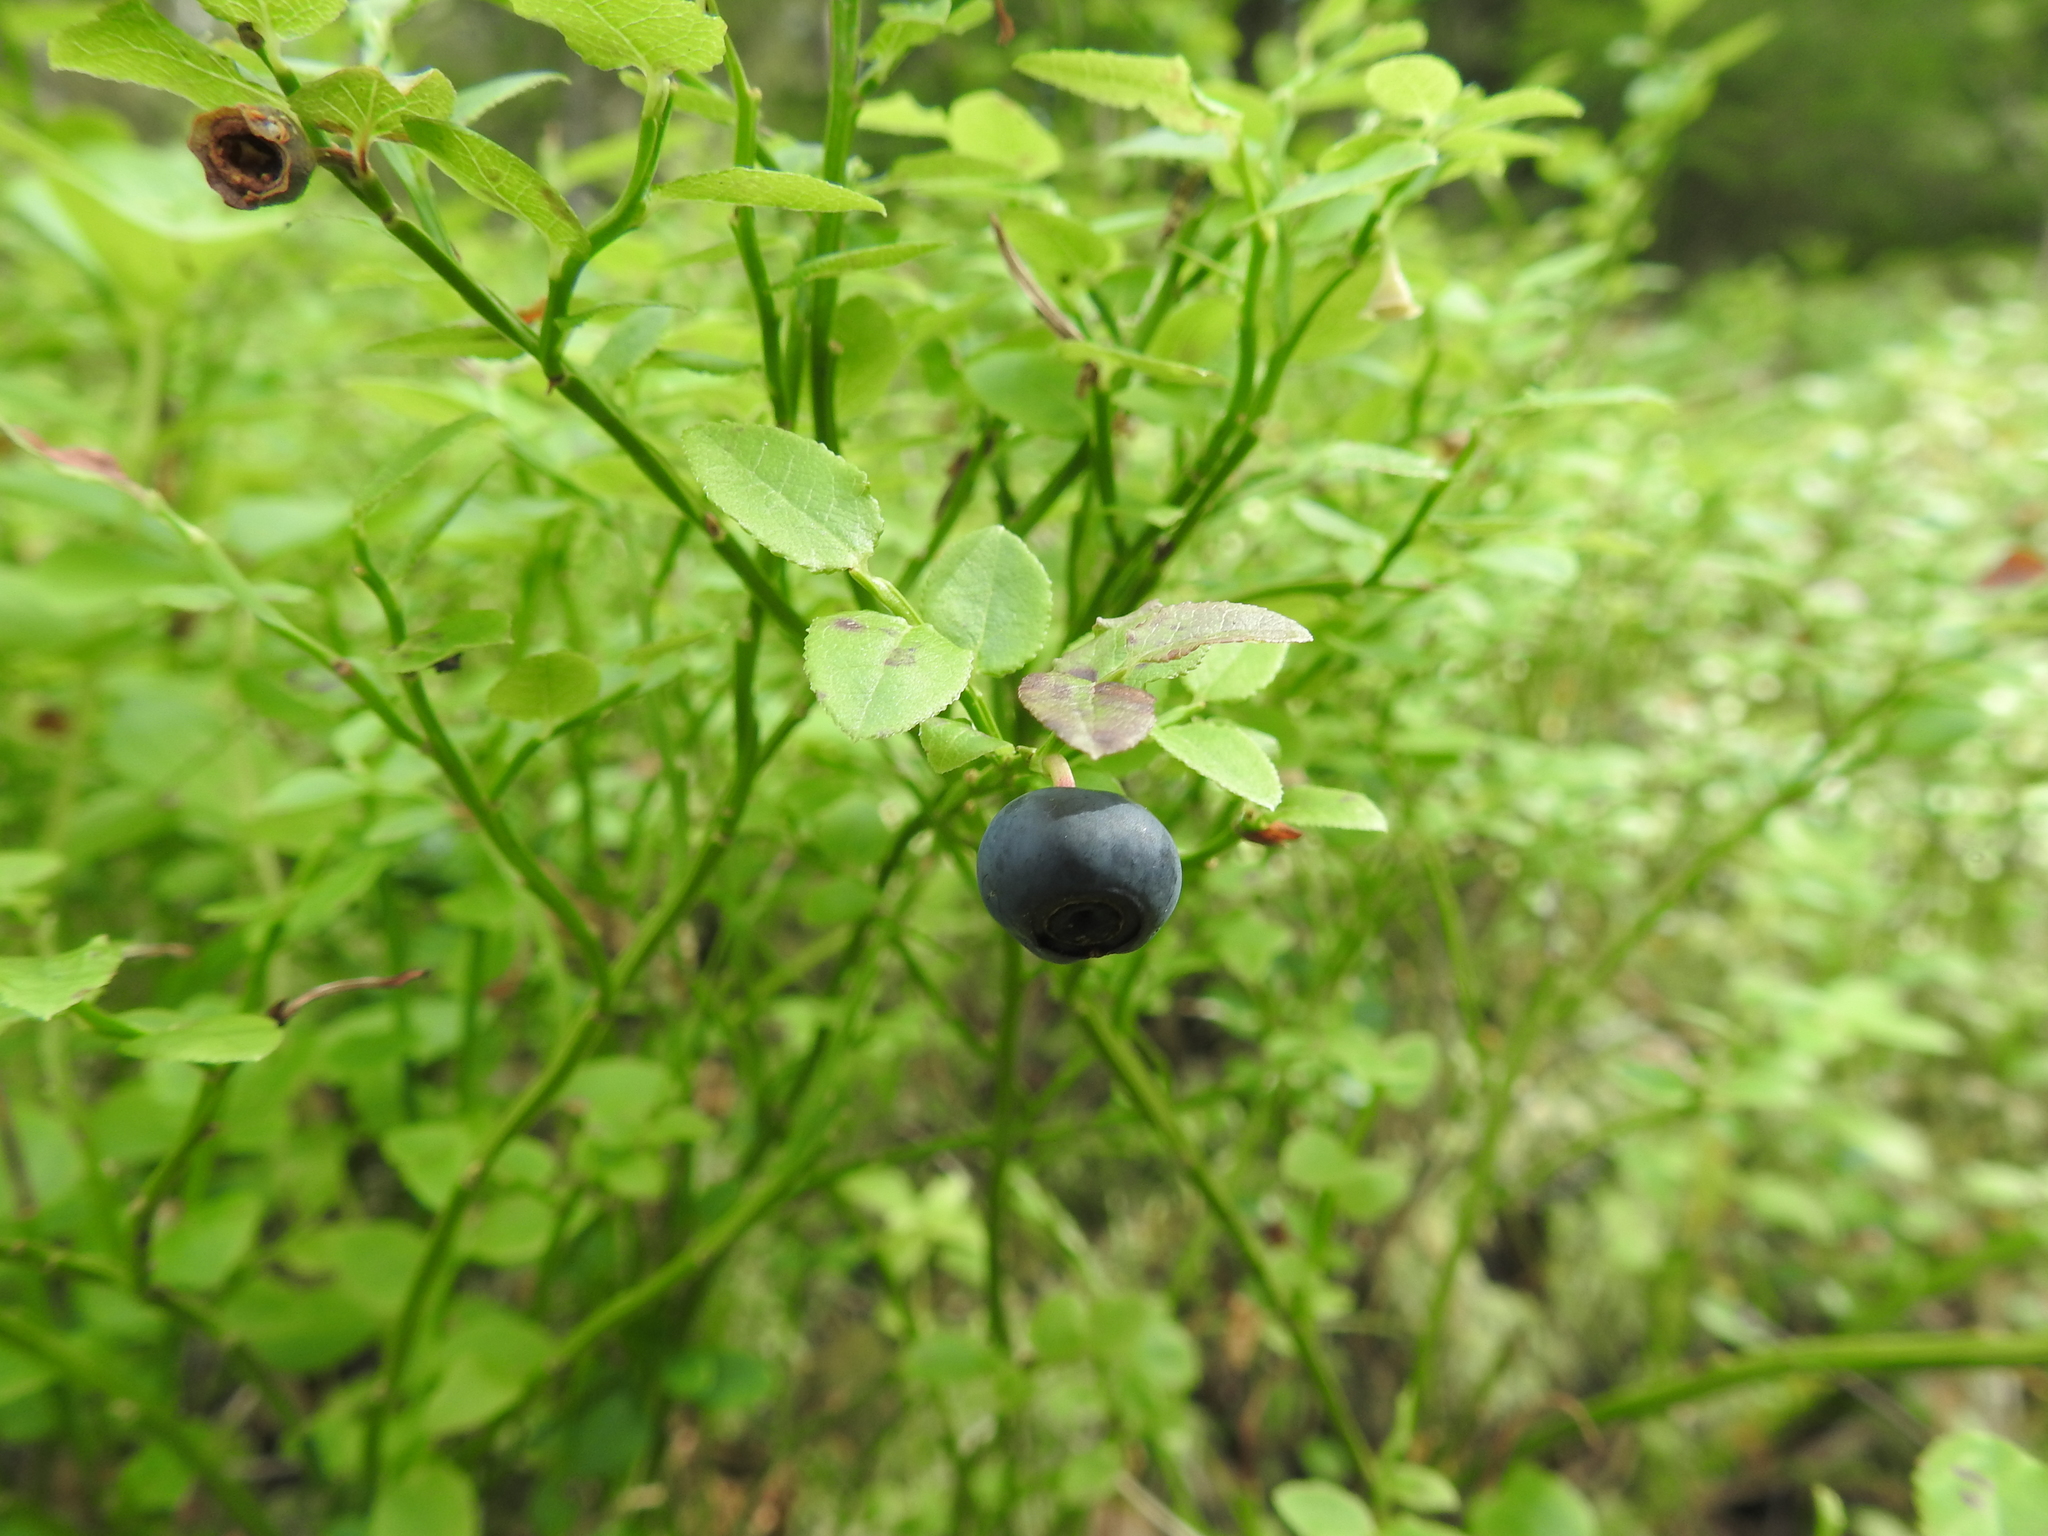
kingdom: Plantae
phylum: Tracheophyta
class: Magnoliopsida
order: Ericales
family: Ericaceae
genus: Vaccinium
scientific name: Vaccinium myrtillus
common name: Bilberry
